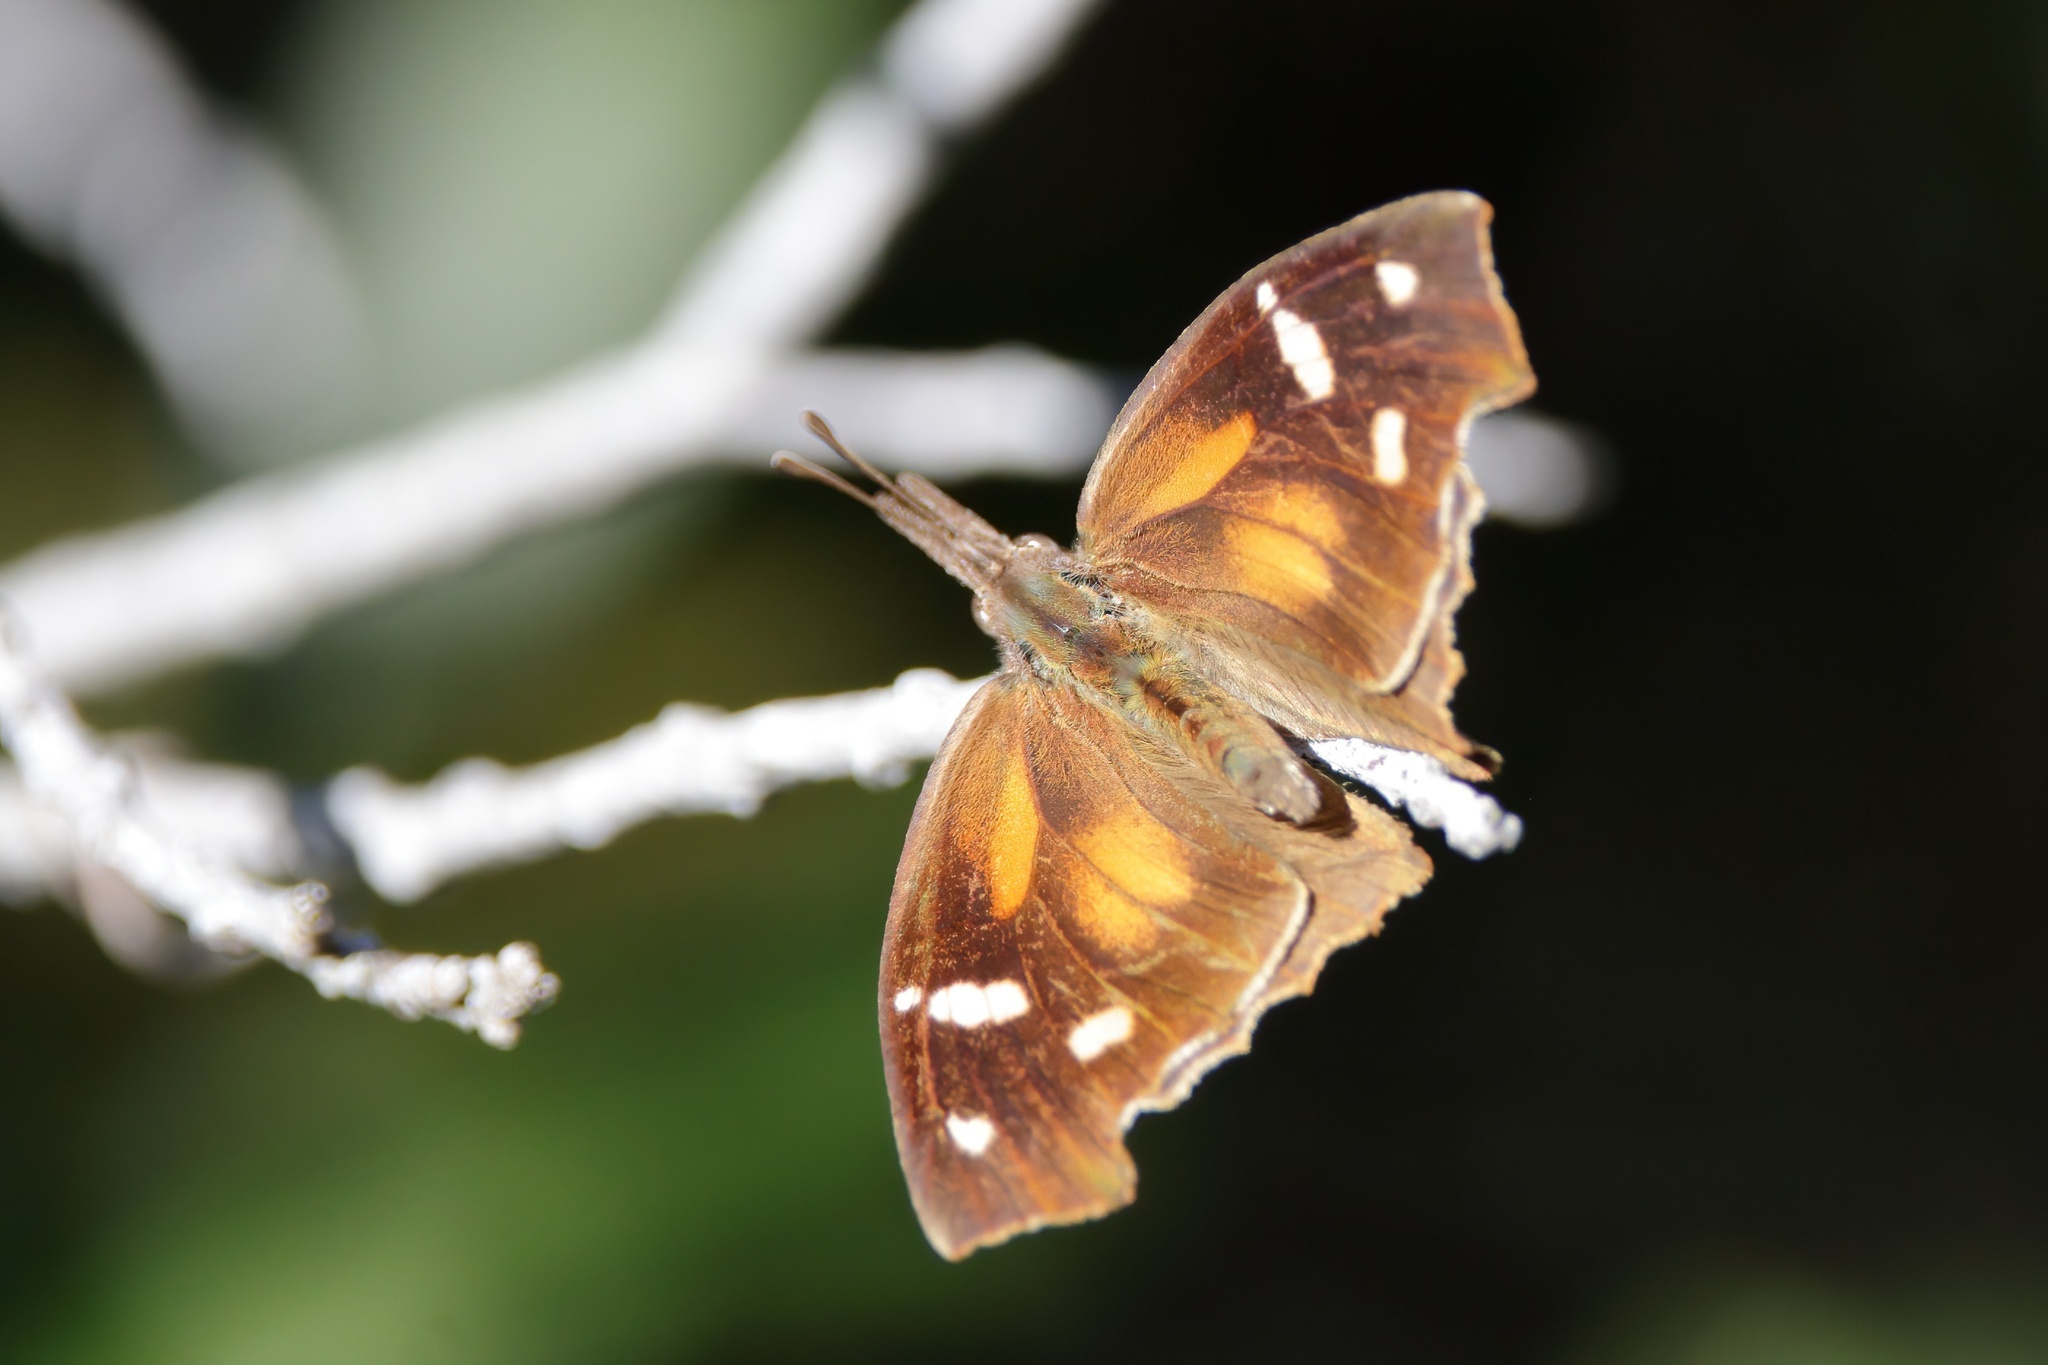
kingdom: Animalia
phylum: Arthropoda
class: Insecta
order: Lepidoptera
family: Nymphalidae
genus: Libytheana
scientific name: Libytheana carinenta
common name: American snout
